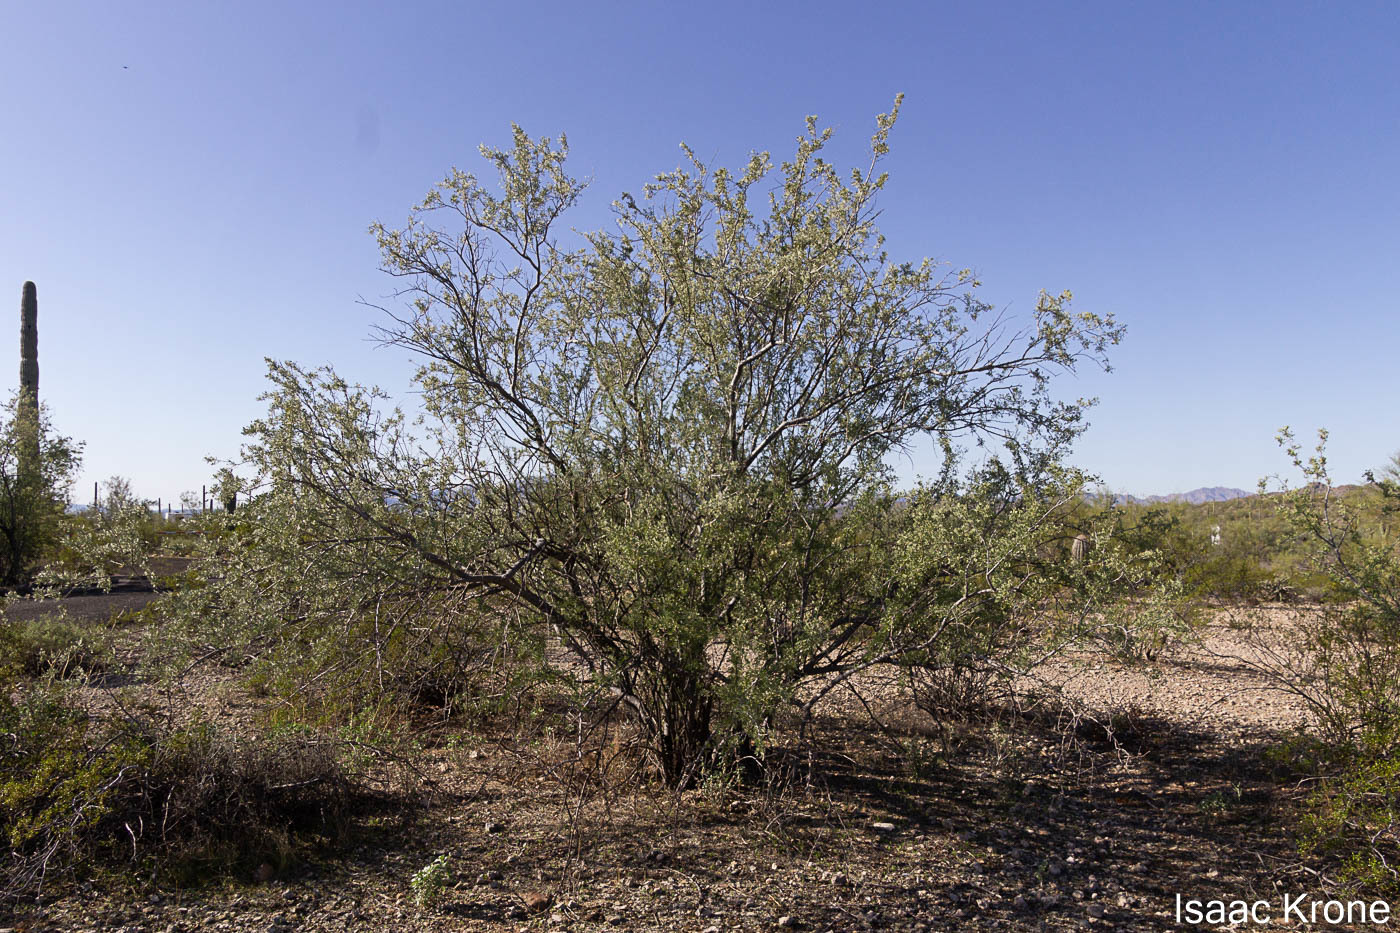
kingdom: Plantae
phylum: Tracheophyta
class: Magnoliopsida
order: Fabales
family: Fabaceae
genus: Olneya
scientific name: Olneya tesota
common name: Desert ironwood
